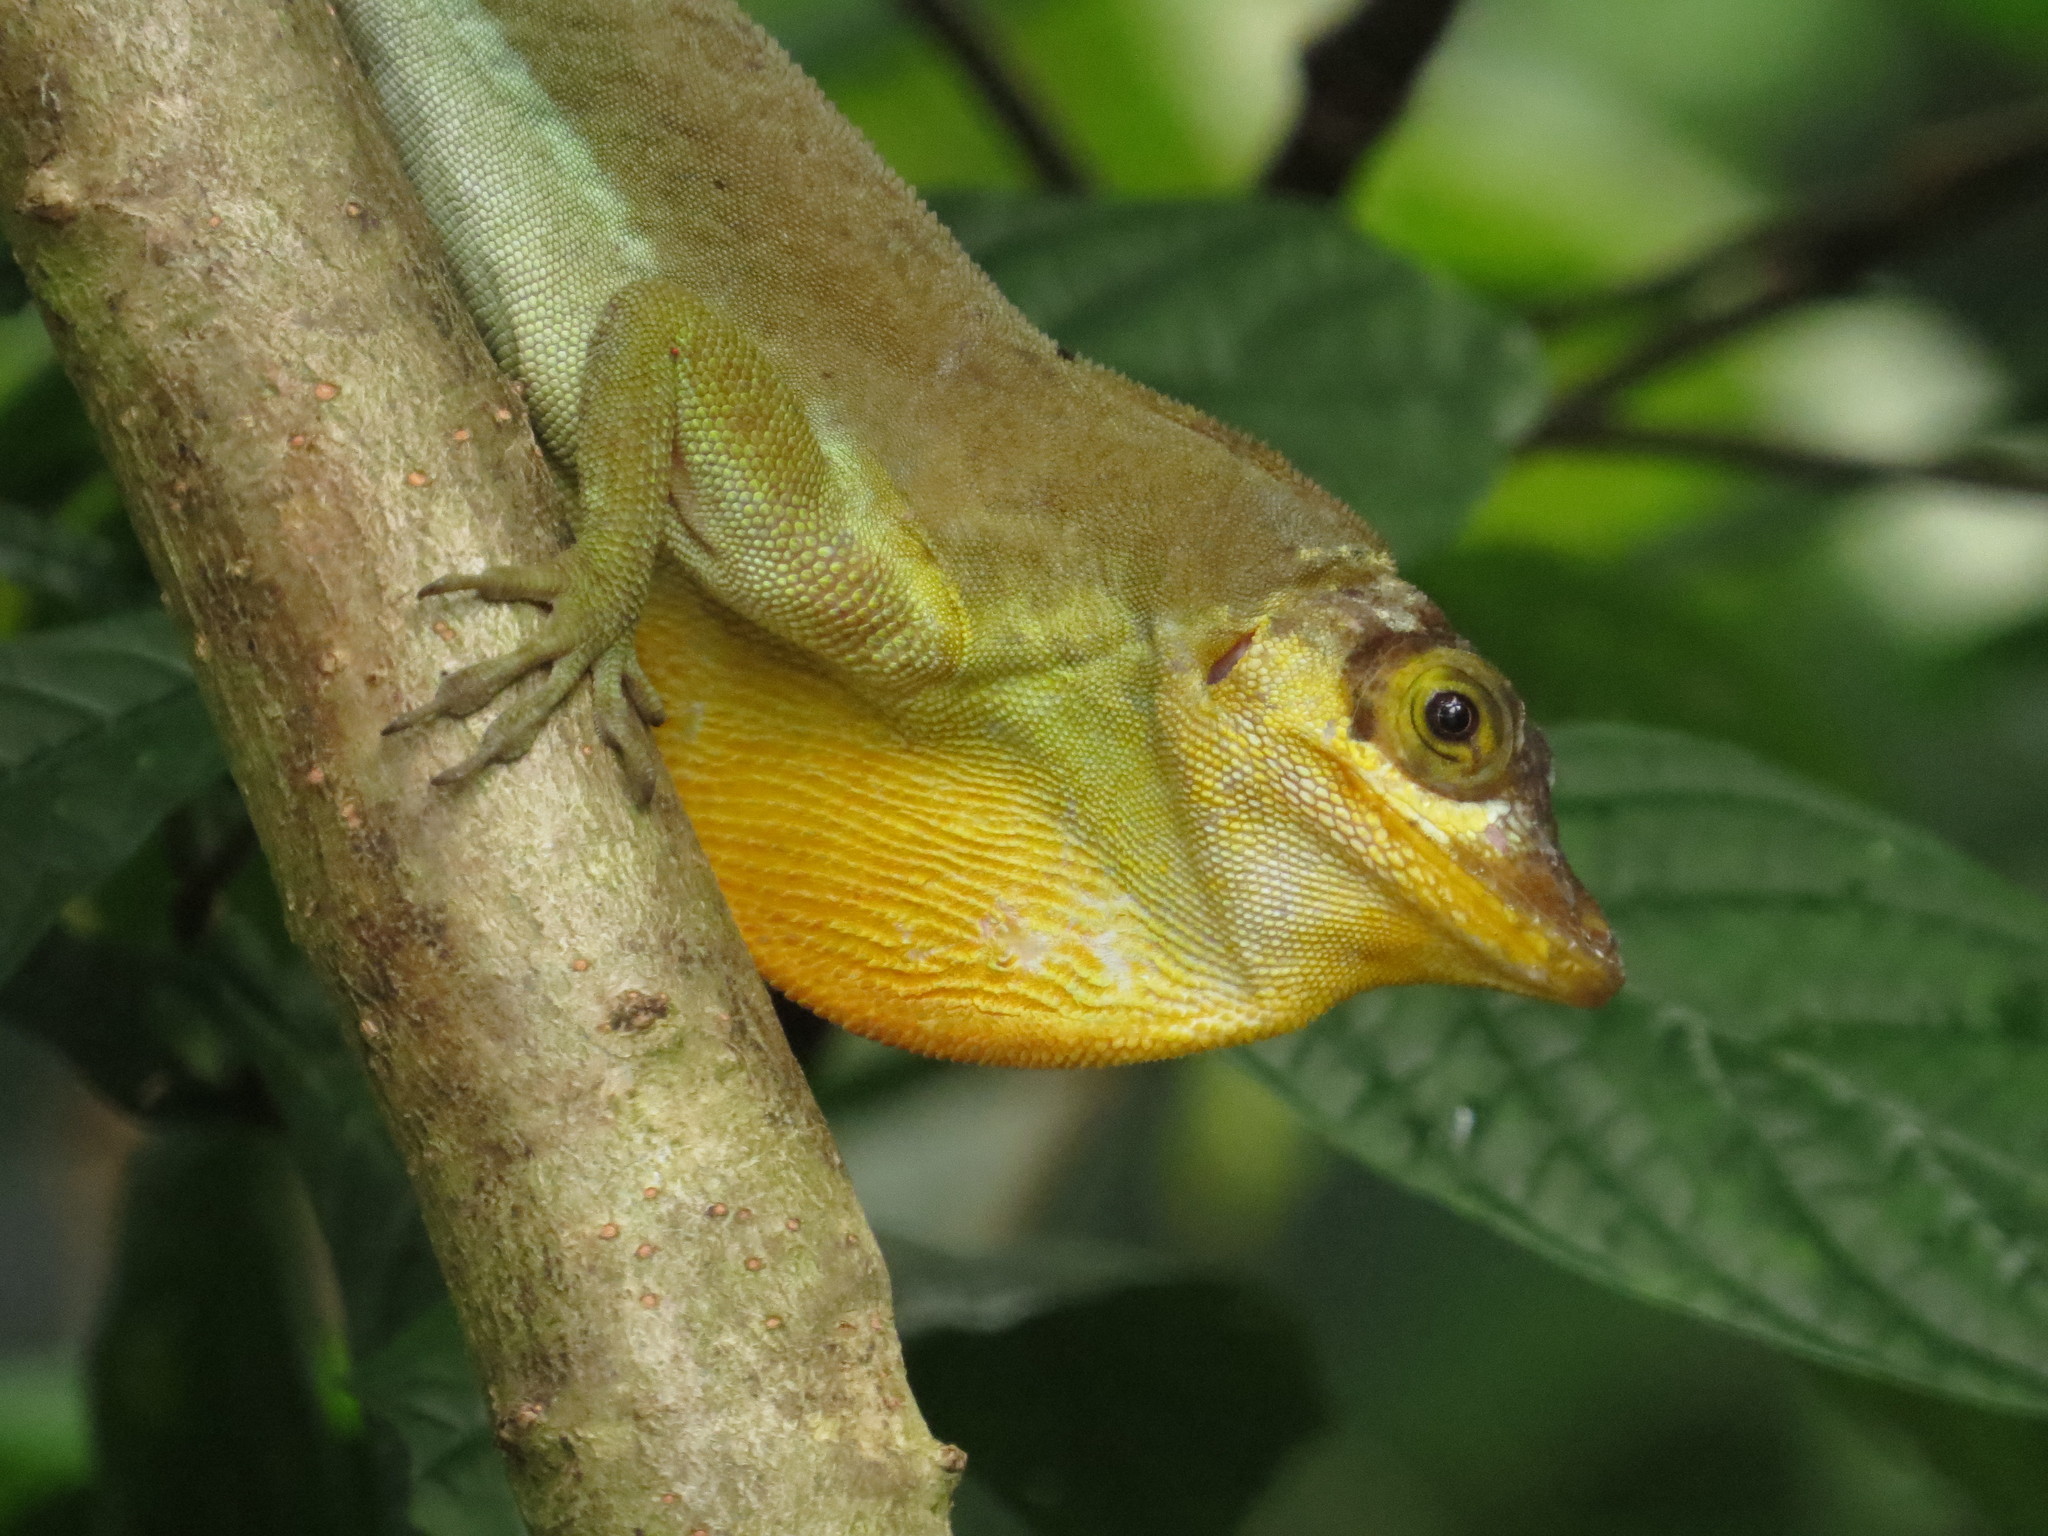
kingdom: Animalia
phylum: Chordata
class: Squamata
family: Dactyloidae
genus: Anolis
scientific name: Anolis richardii
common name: Grenada tree anole
